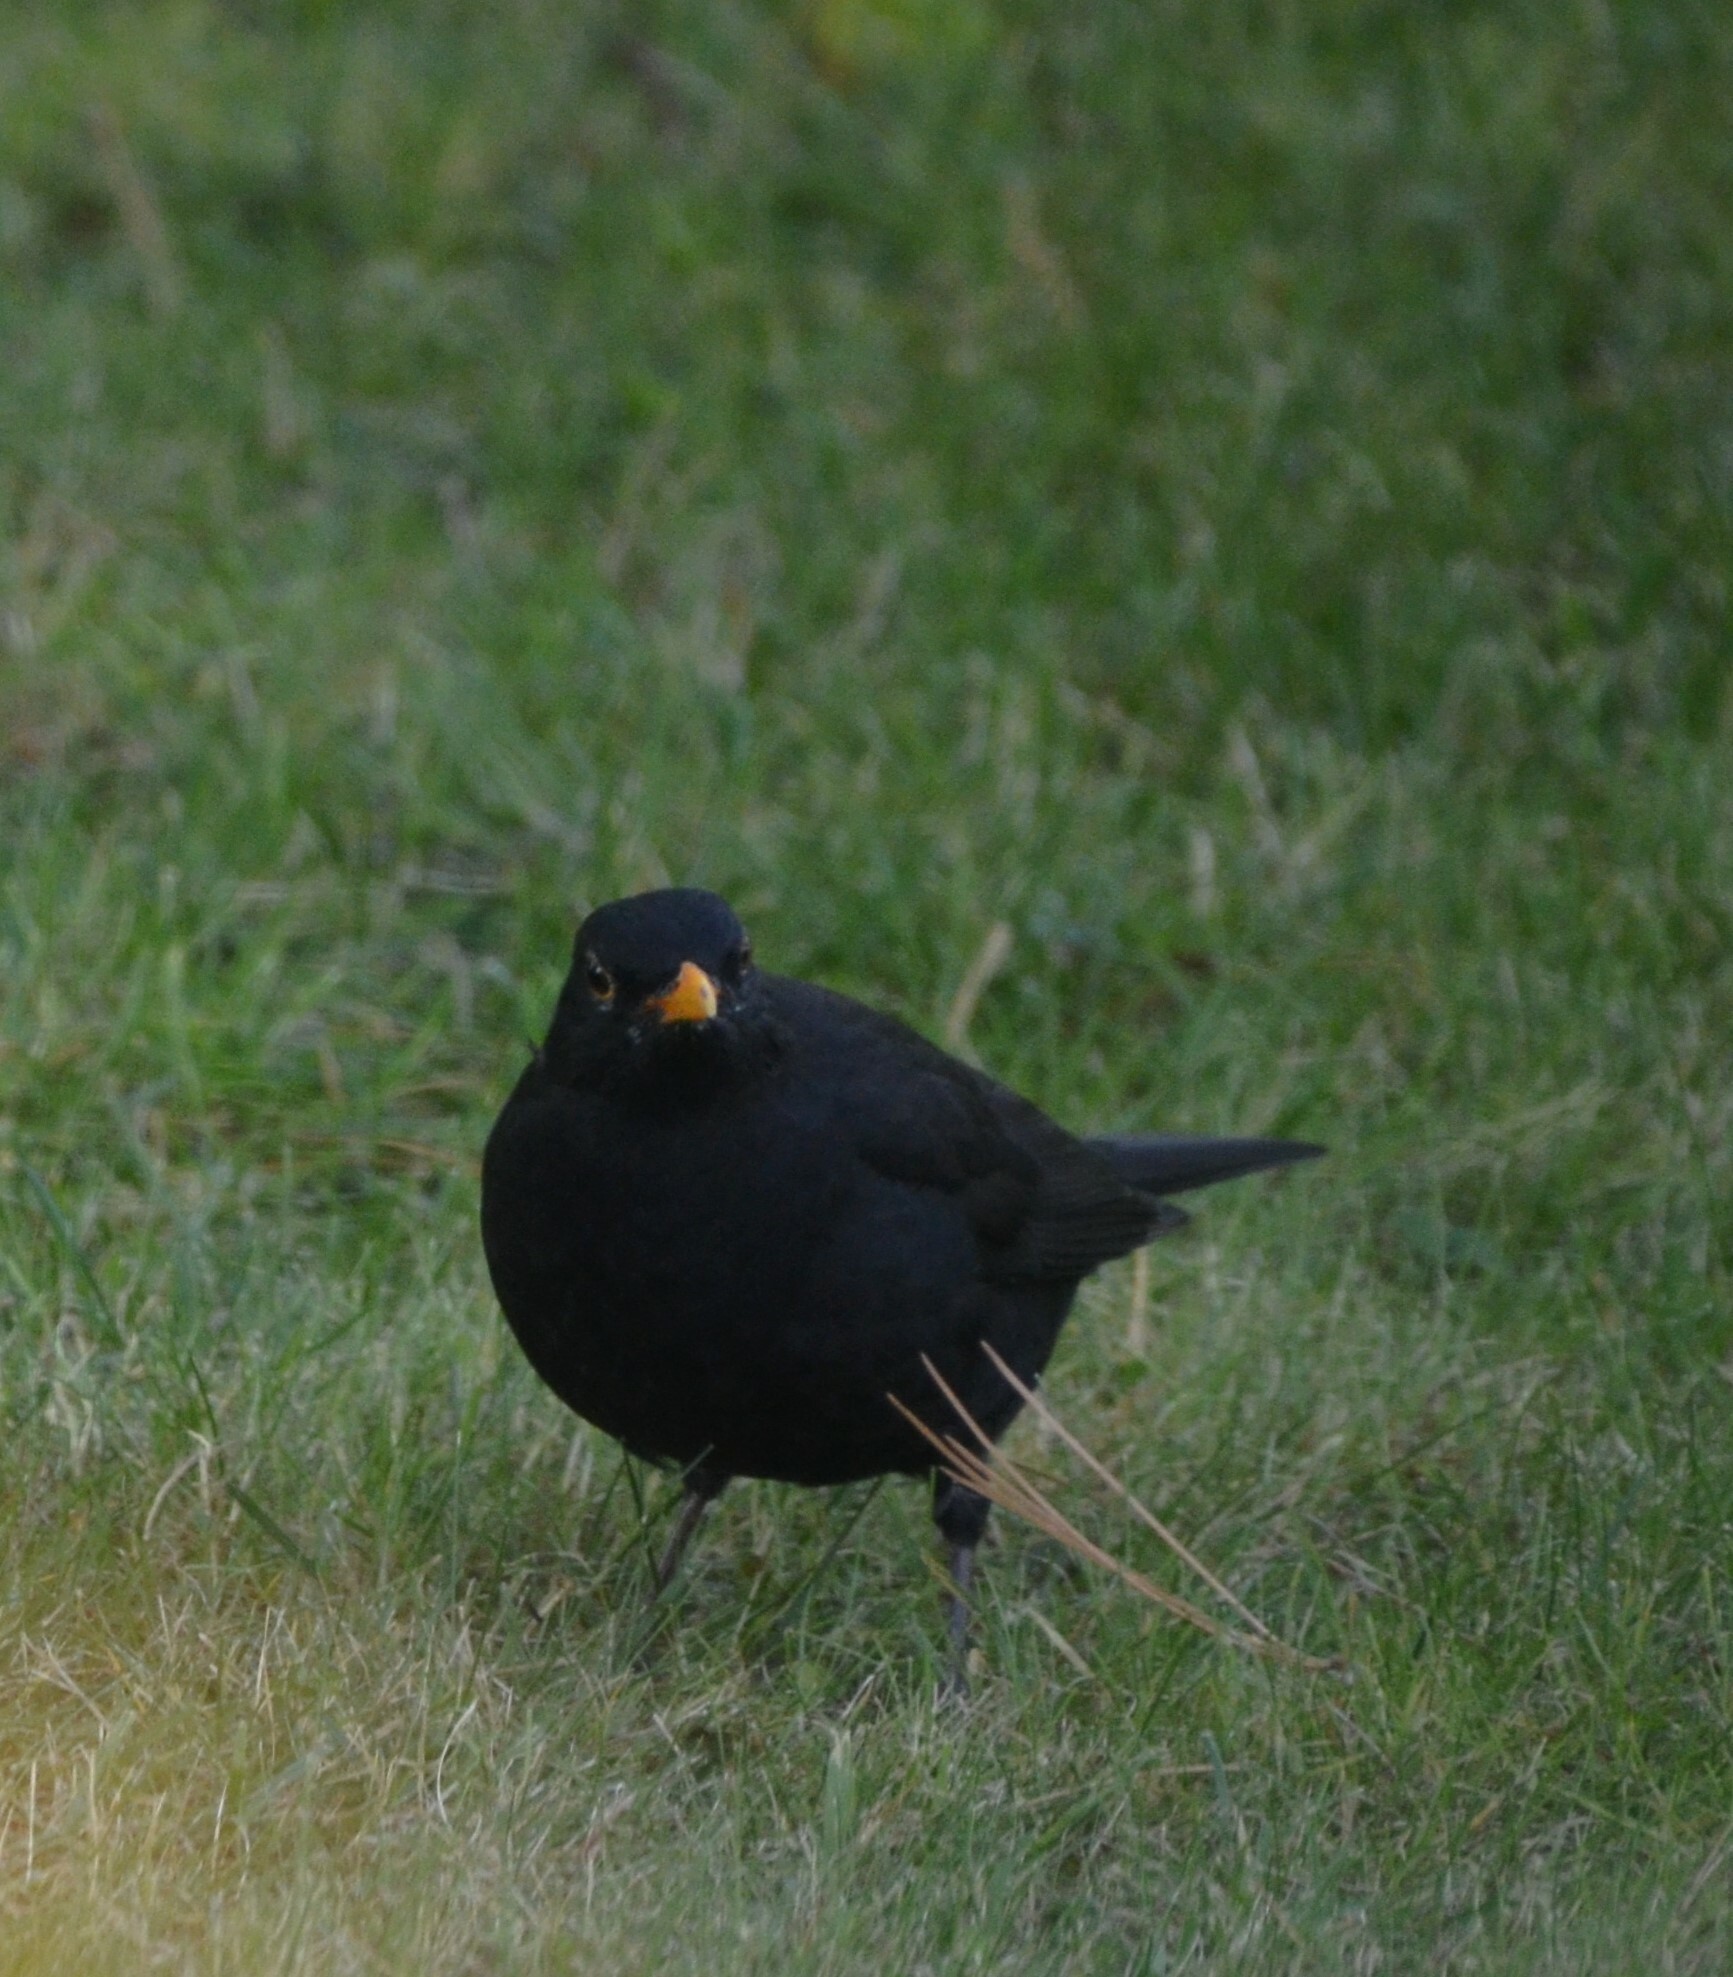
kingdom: Animalia
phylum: Chordata
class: Aves
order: Passeriformes
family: Turdidae
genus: Turdus
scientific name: Turdus merula
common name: Common blackbird
